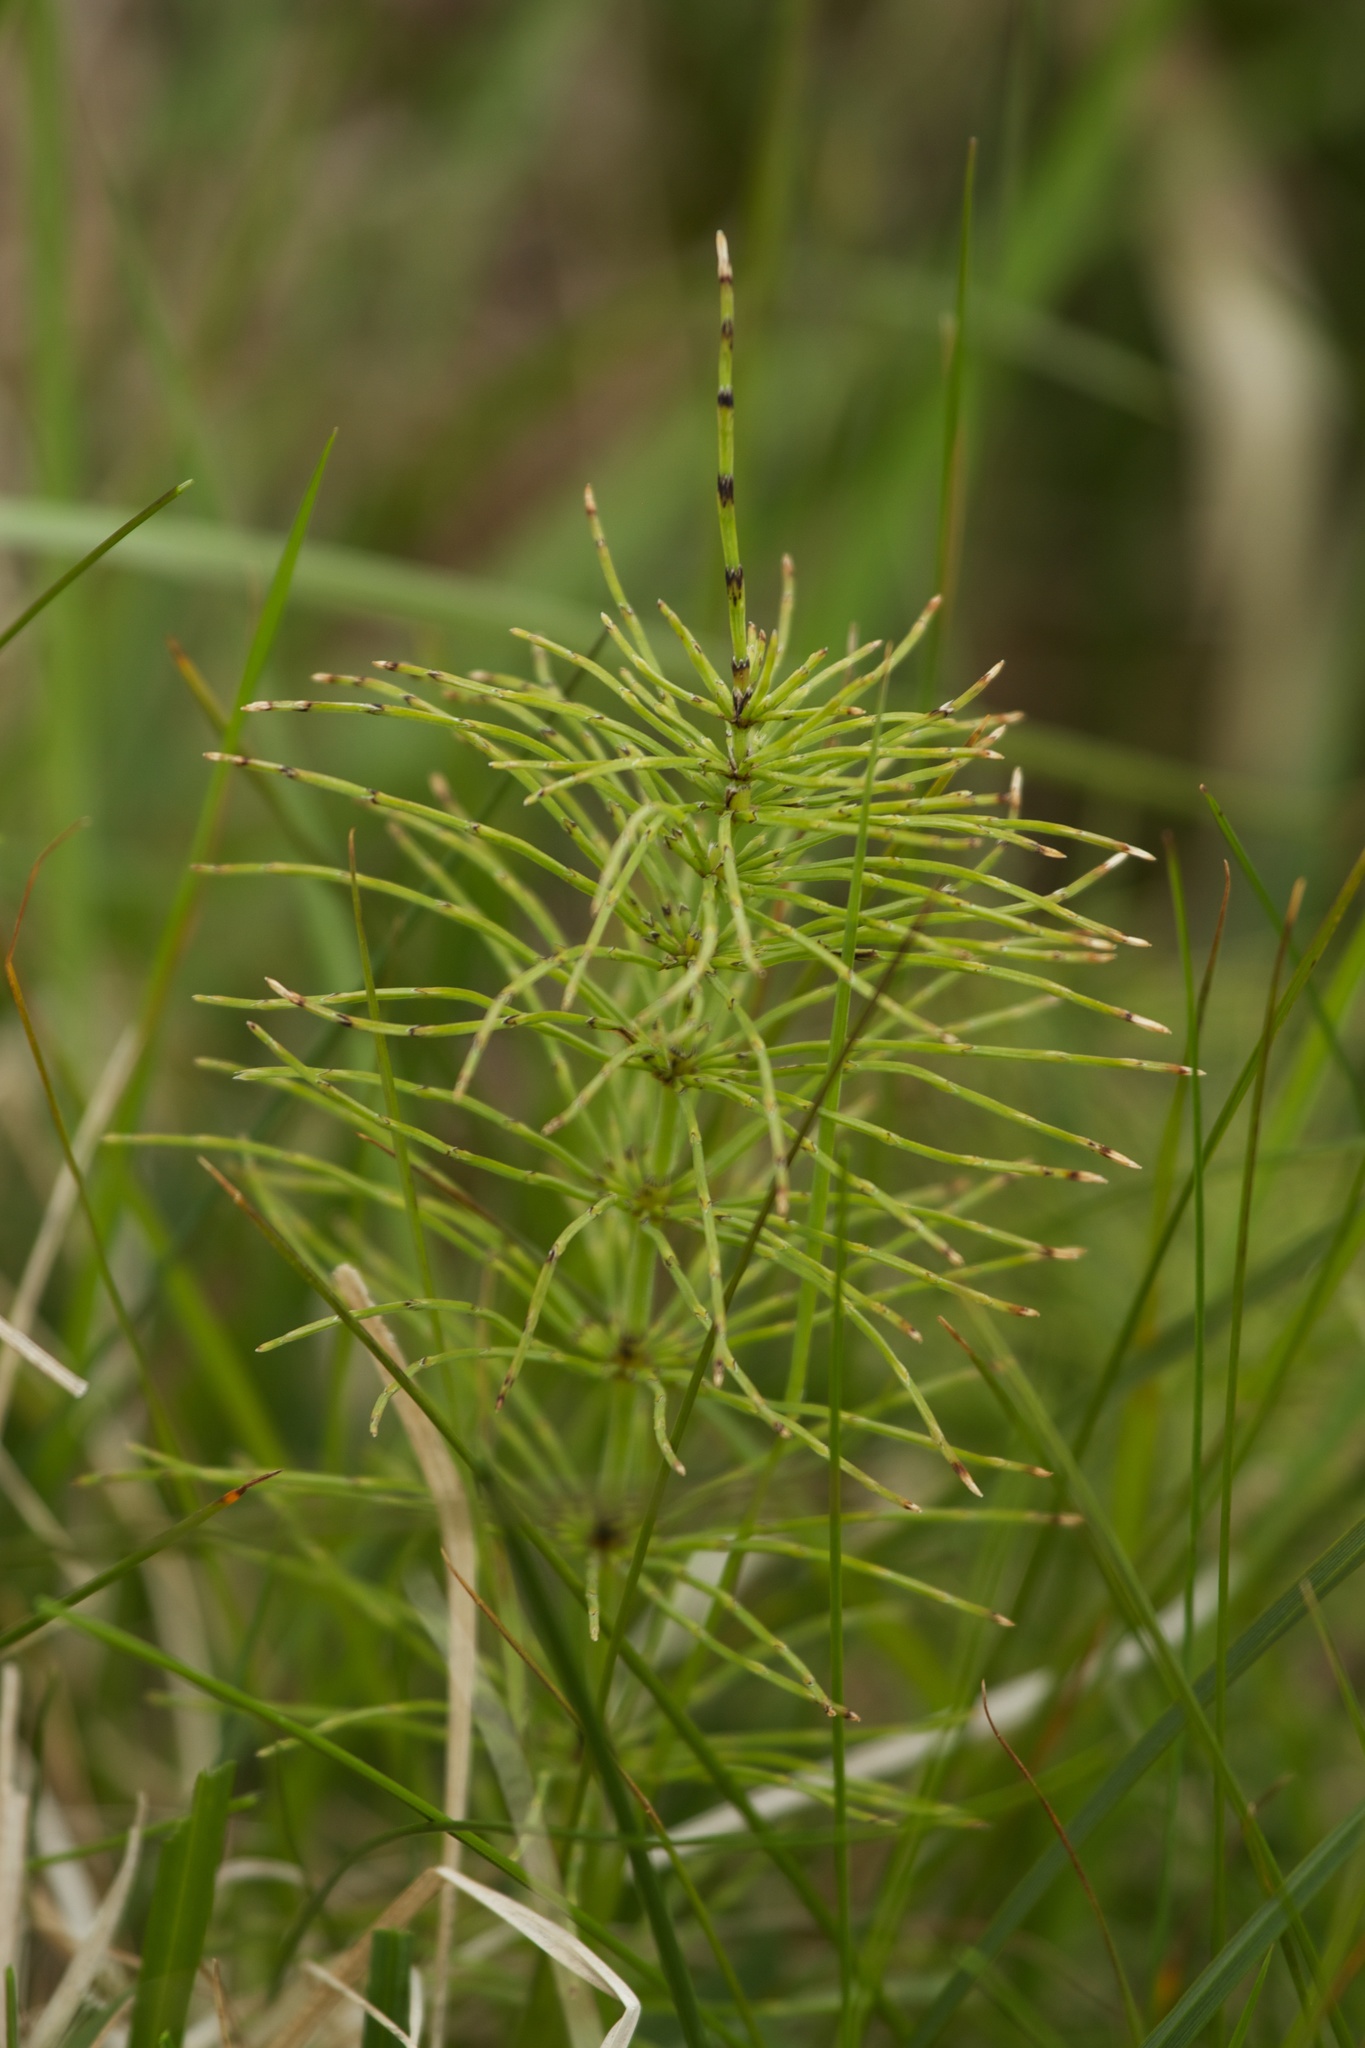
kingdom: Plantae
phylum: Tracheophyta
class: Polypodiopsida
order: Equisetales
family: Equisetaceae
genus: Equisetum
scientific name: Equisetum pratense
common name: Meadow horsetail
